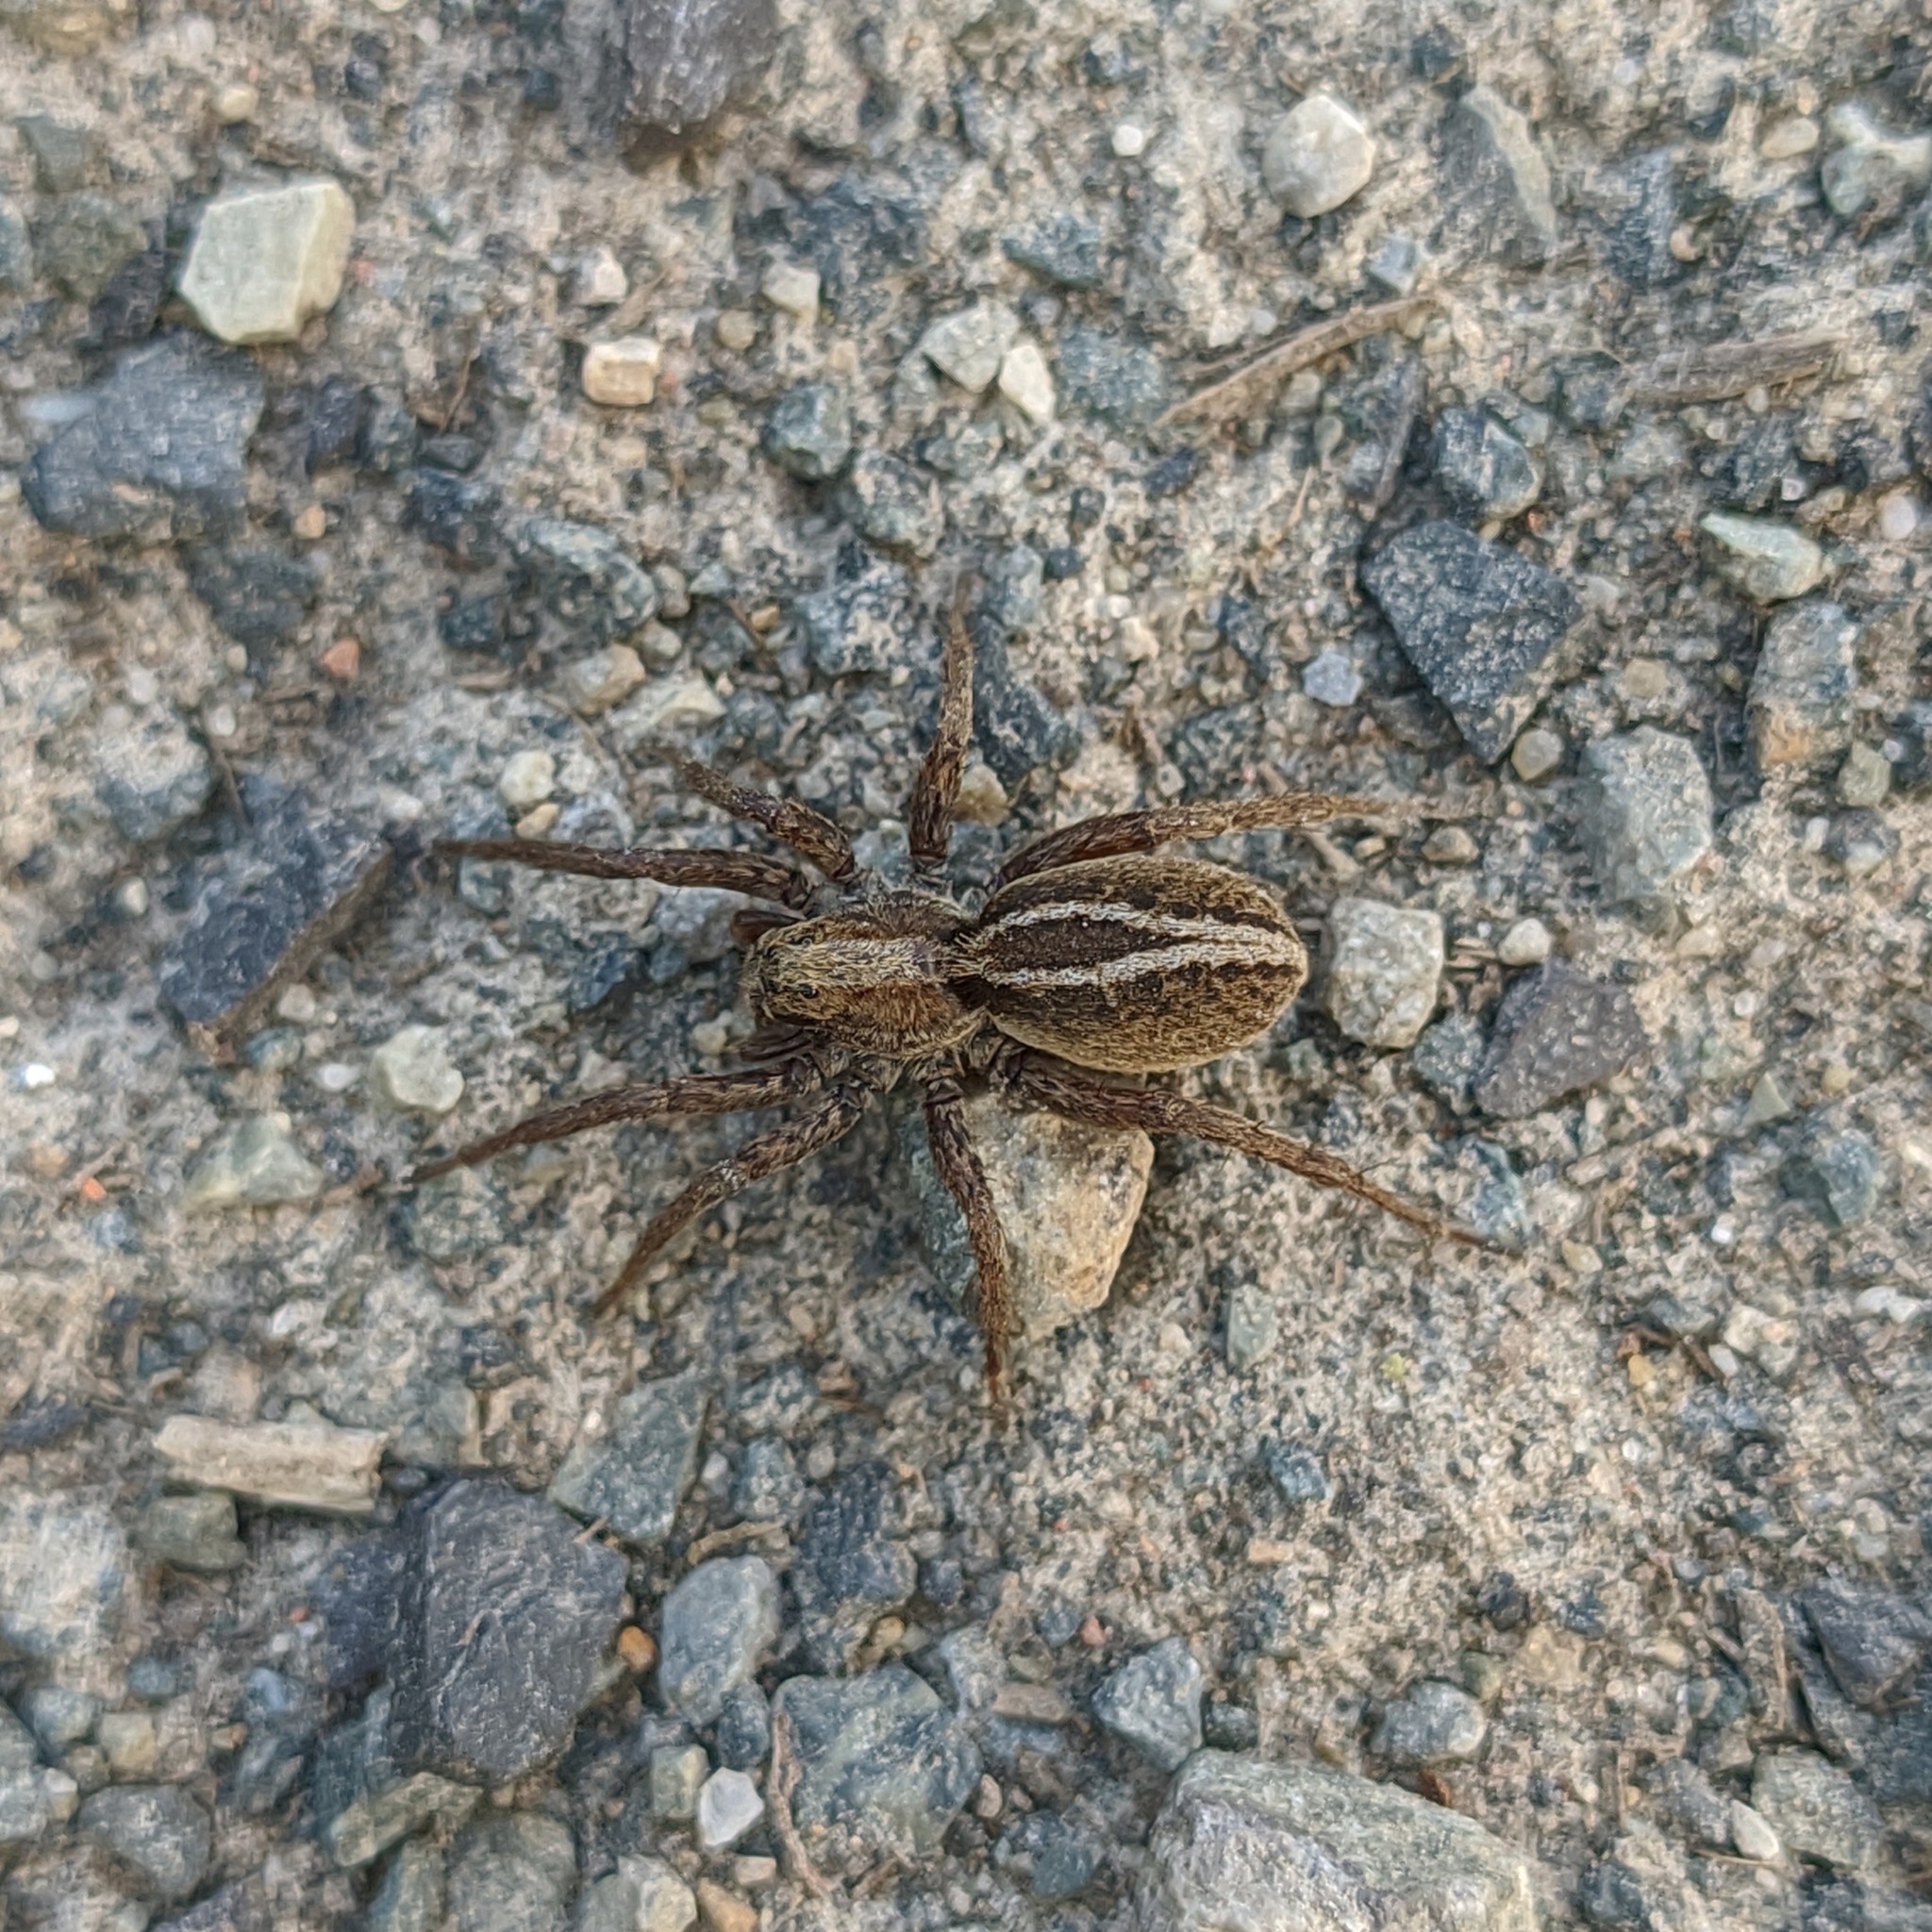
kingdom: Animalia
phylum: Arthropoda
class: Arachnida
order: Araneae
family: Lycosidae
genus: Alopecosa
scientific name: Alopecosa cuneata
